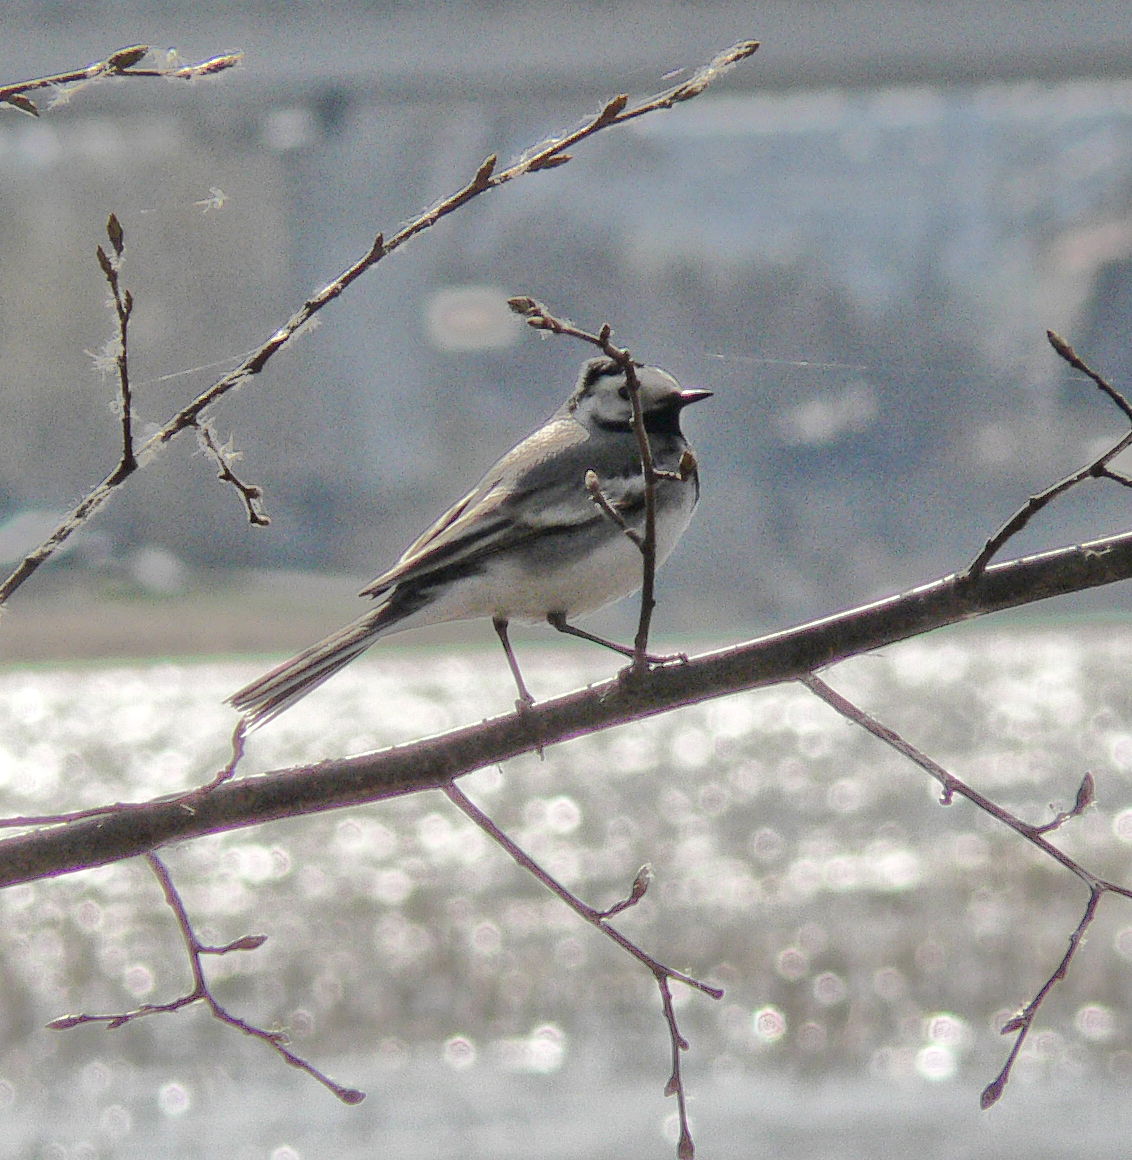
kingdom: Animalia
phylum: Chordata
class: Aves
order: Passeriformes
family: Motacillidae
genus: Motacilla
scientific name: Motacilla alba
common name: White wagtail
